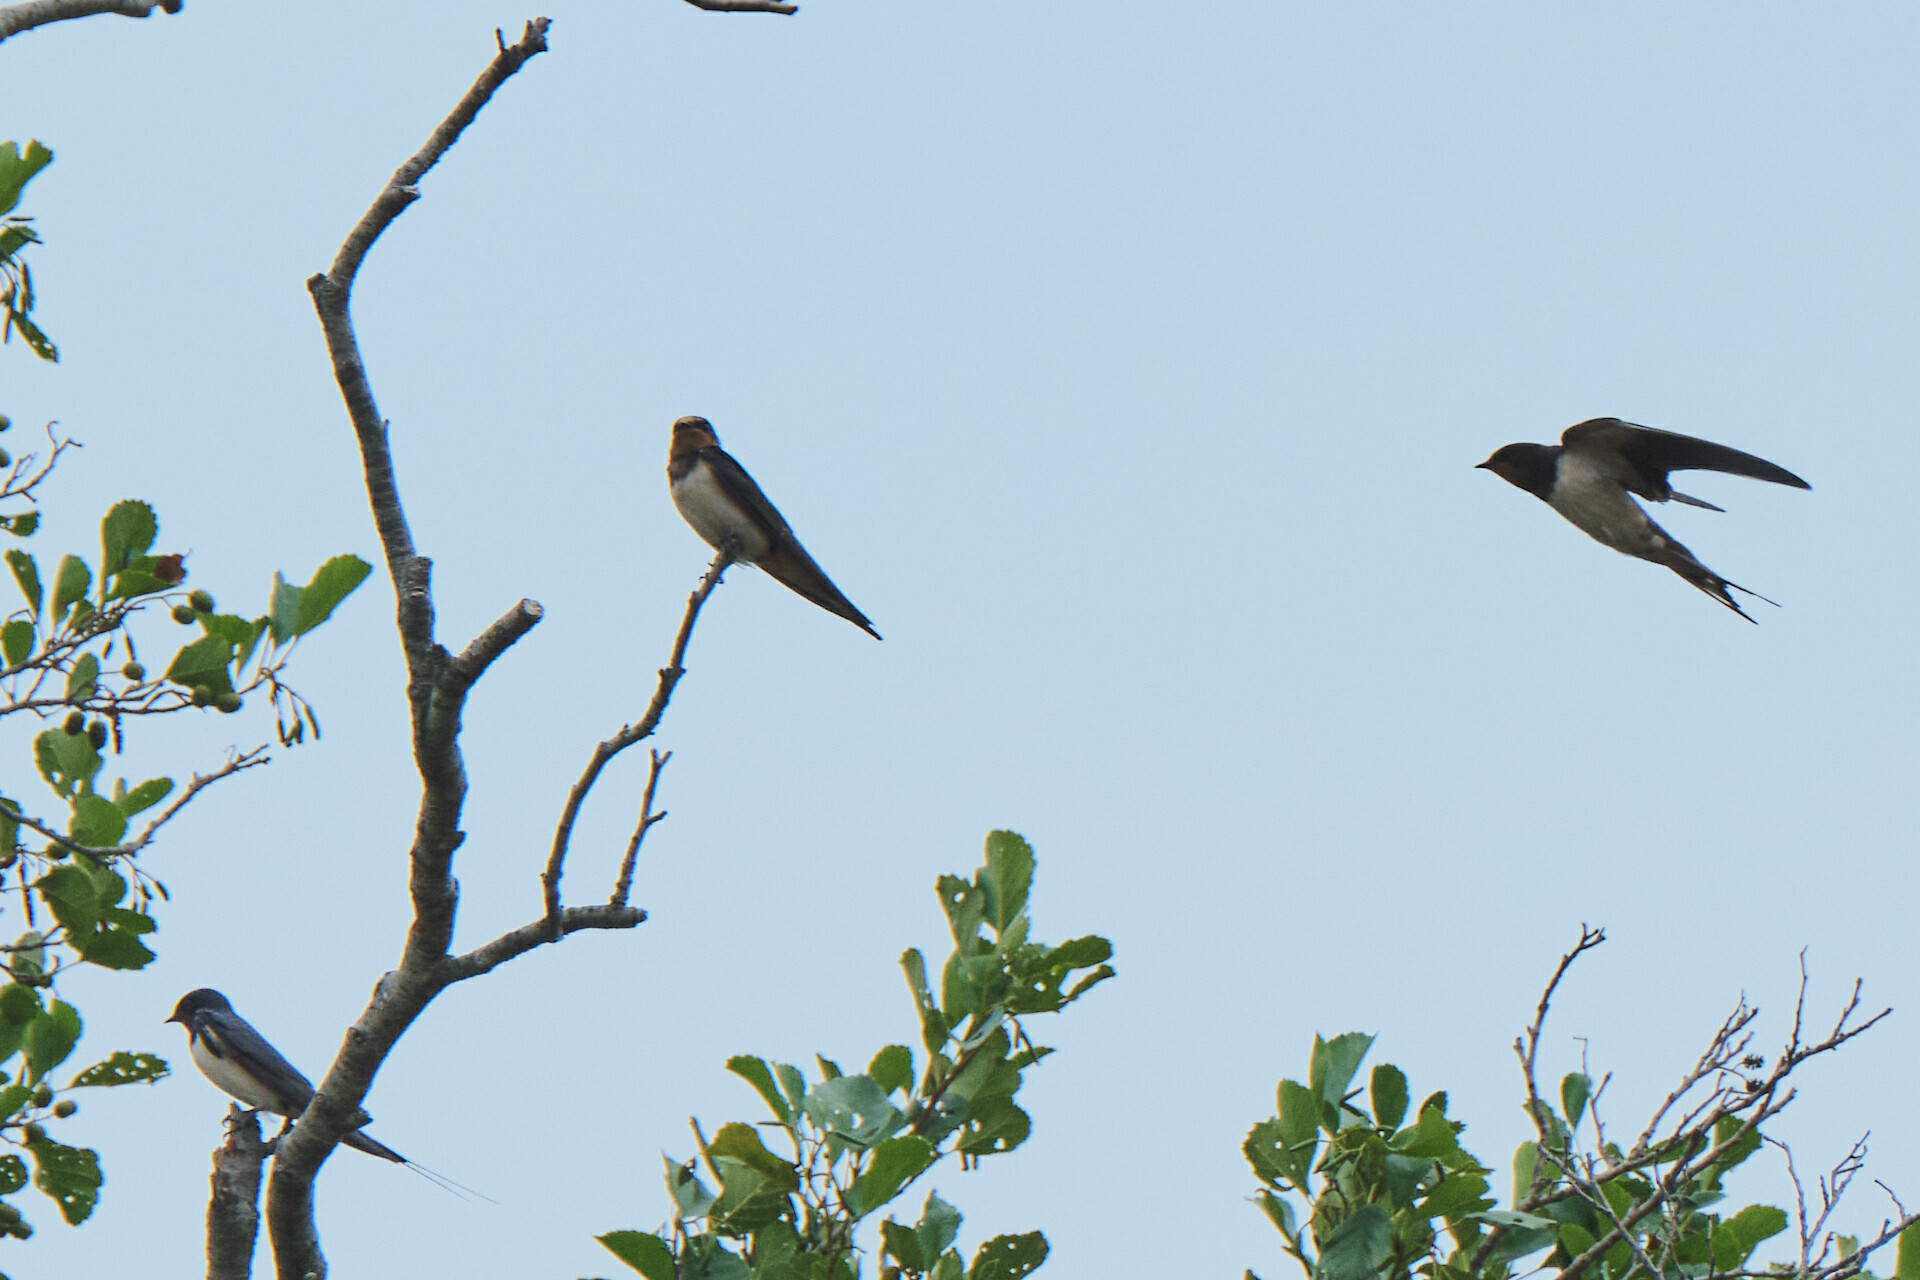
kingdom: Animalia
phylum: Chordata
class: Aves
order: Passeriformes
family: Hirundinidae
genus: Hirundo
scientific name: Hirundo rustica
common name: Barn swallow
